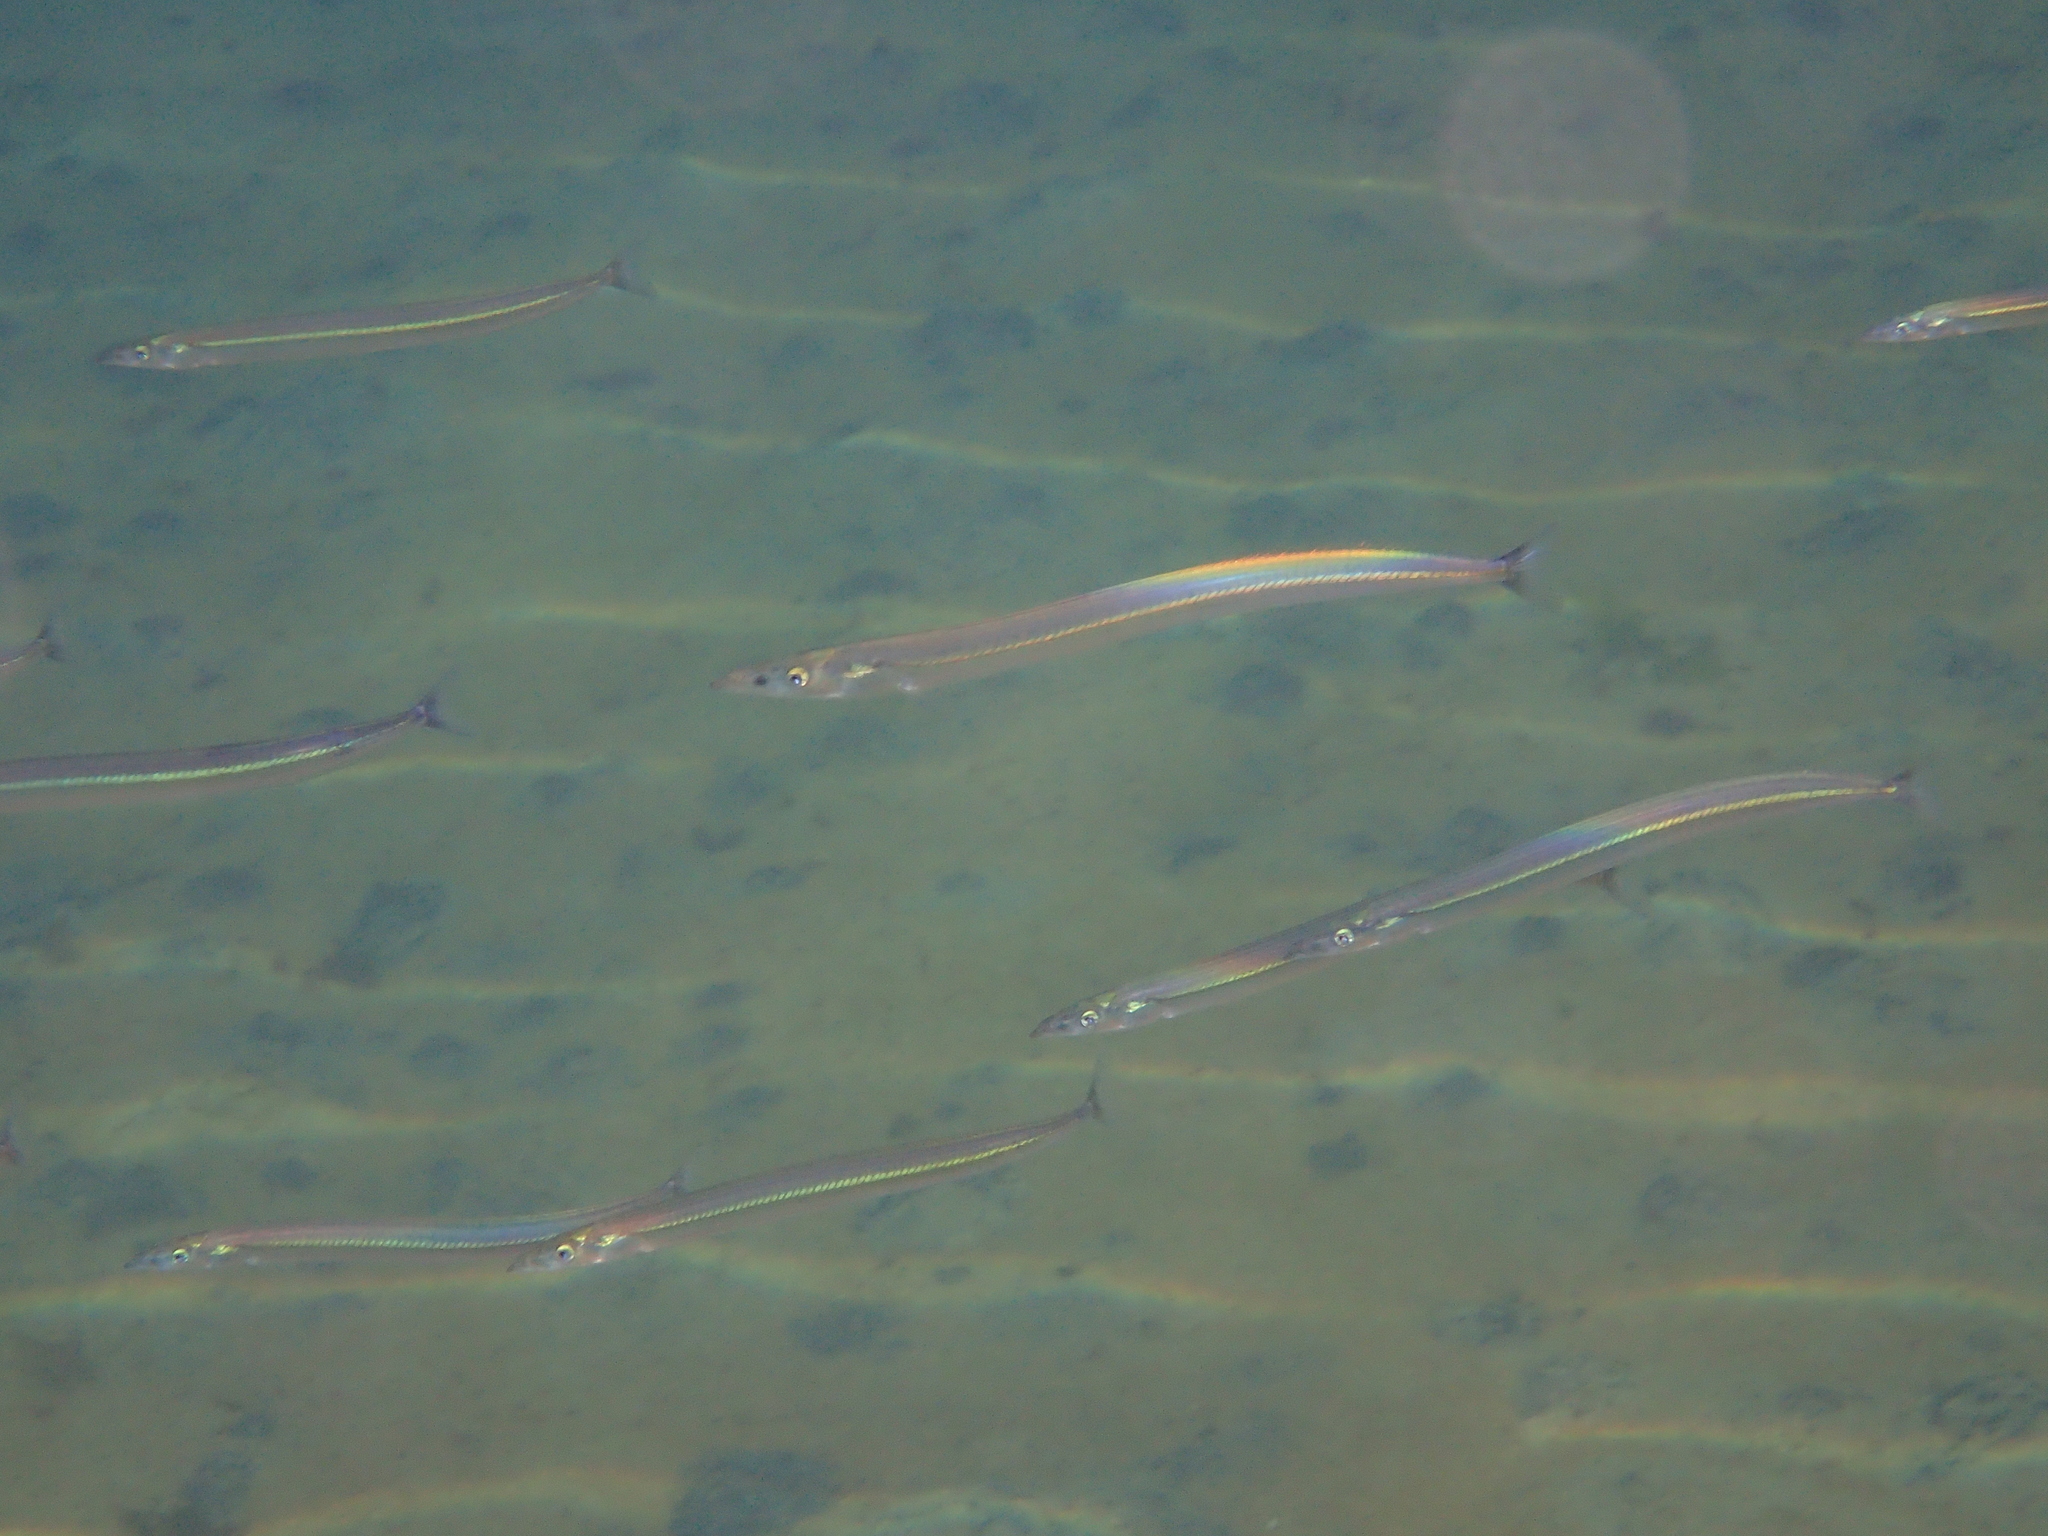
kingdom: Animalia
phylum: Chordata
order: Perciformes
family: Ammodytidae
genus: Hyperoplus
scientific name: Hyperoplus lanceolatus
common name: Greater sandeel
